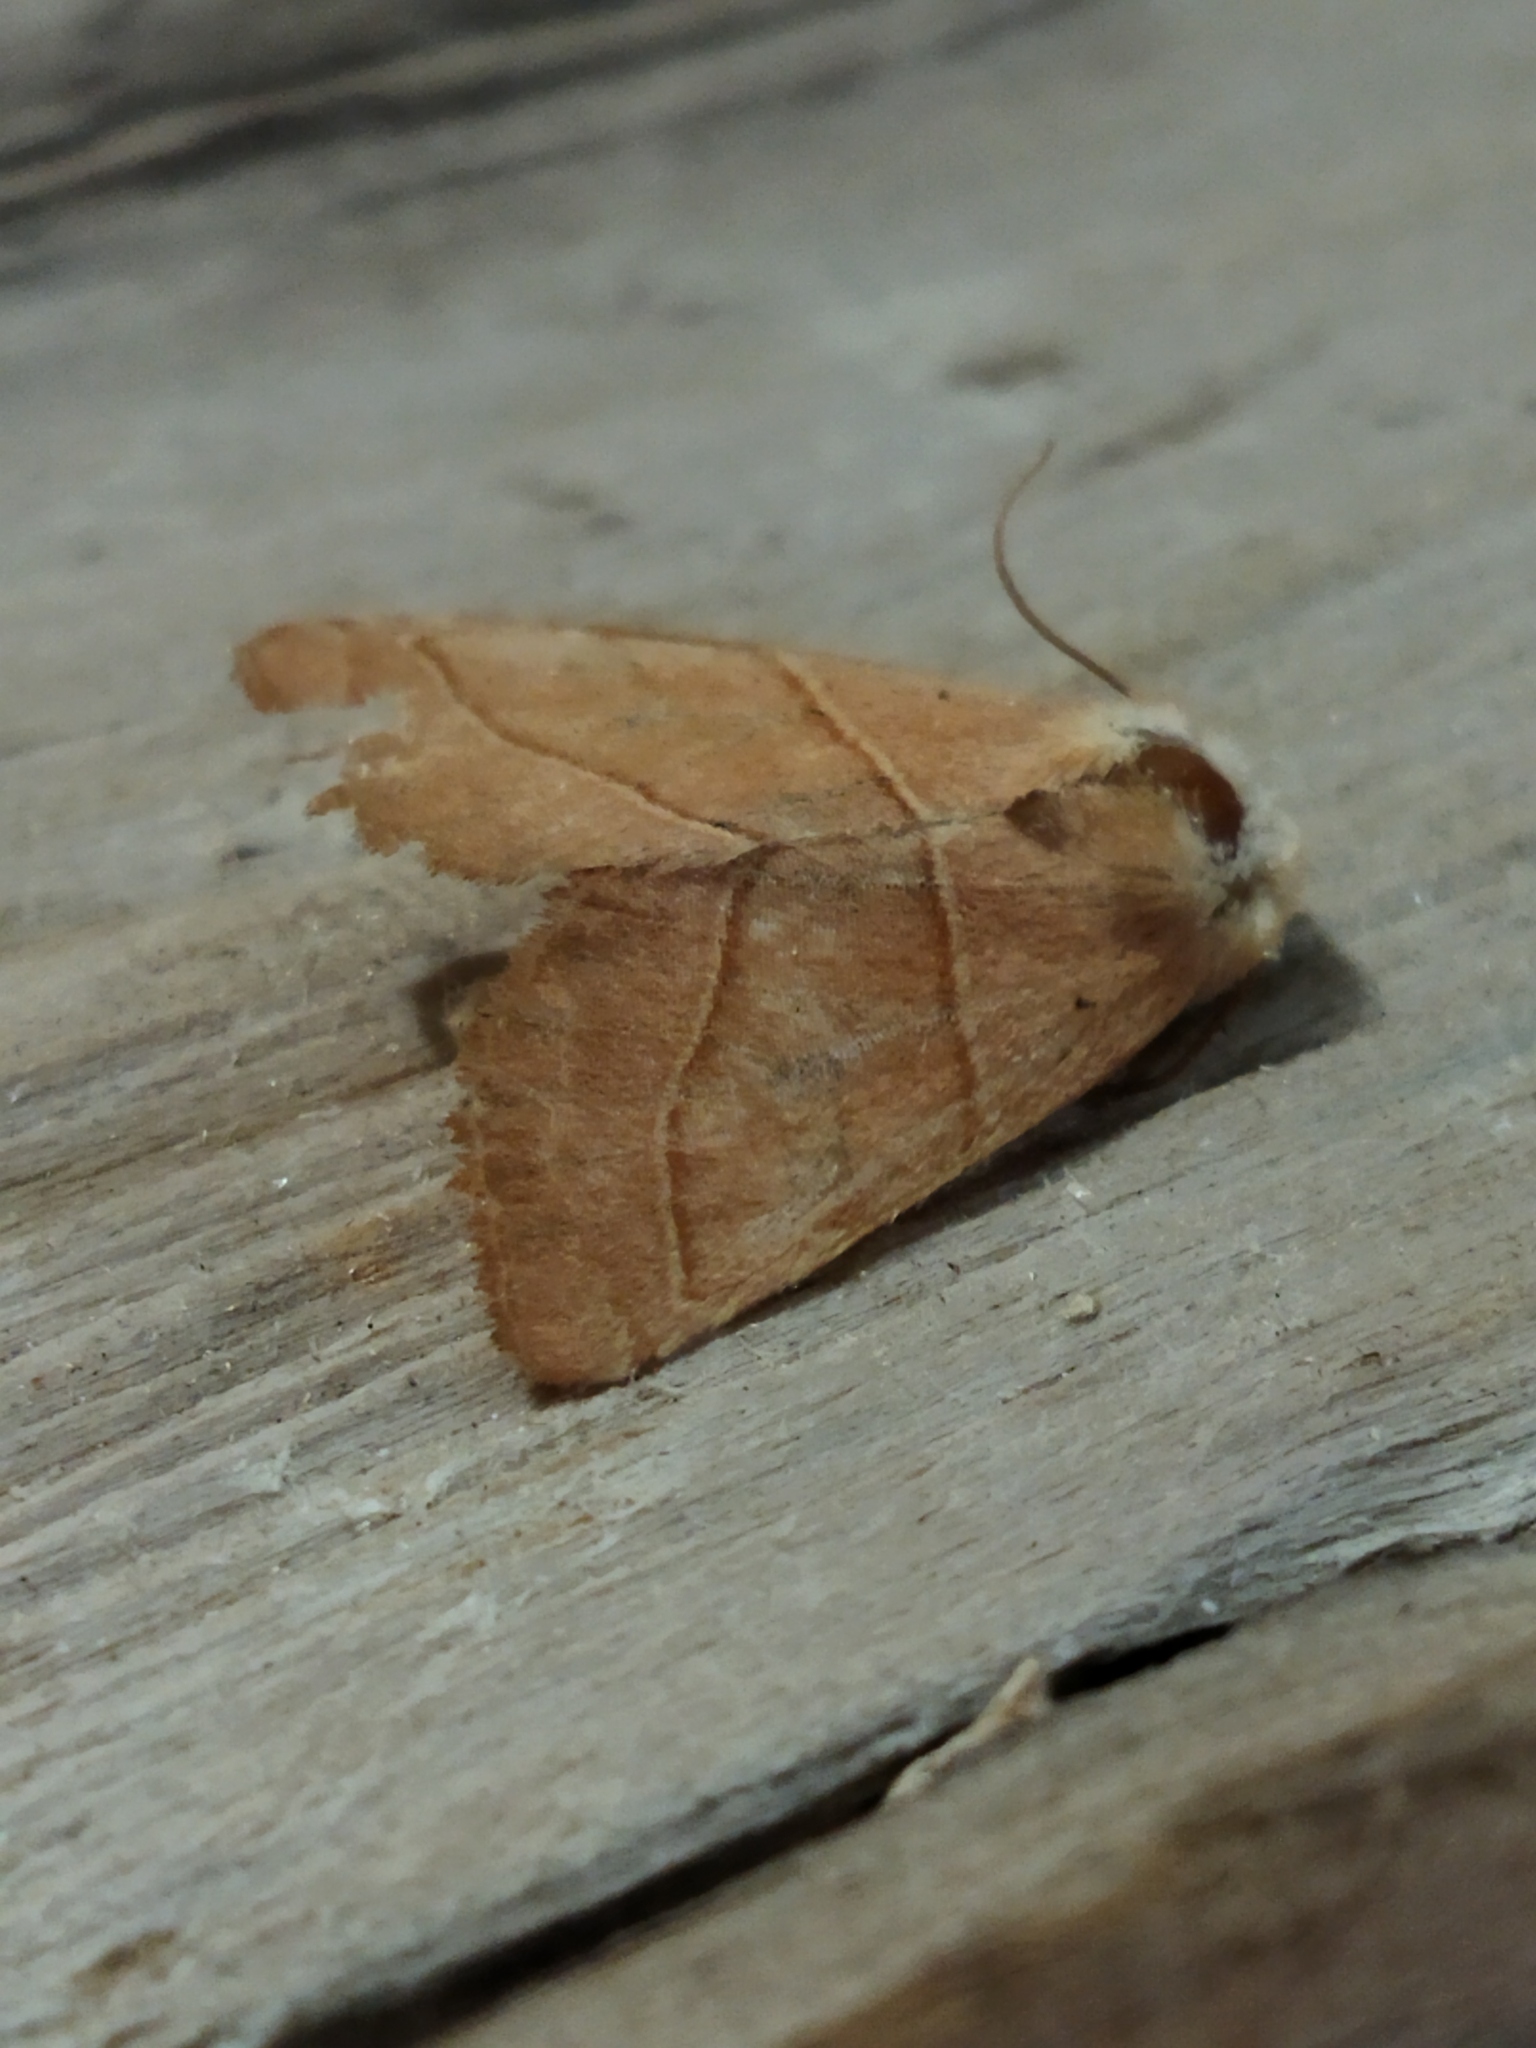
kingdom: Animalia
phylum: Arthropoda
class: Insecta
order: Lepidoptera
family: Noctuidae
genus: Atethmia
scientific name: Atethmia centrago
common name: Centre-barred sallow
